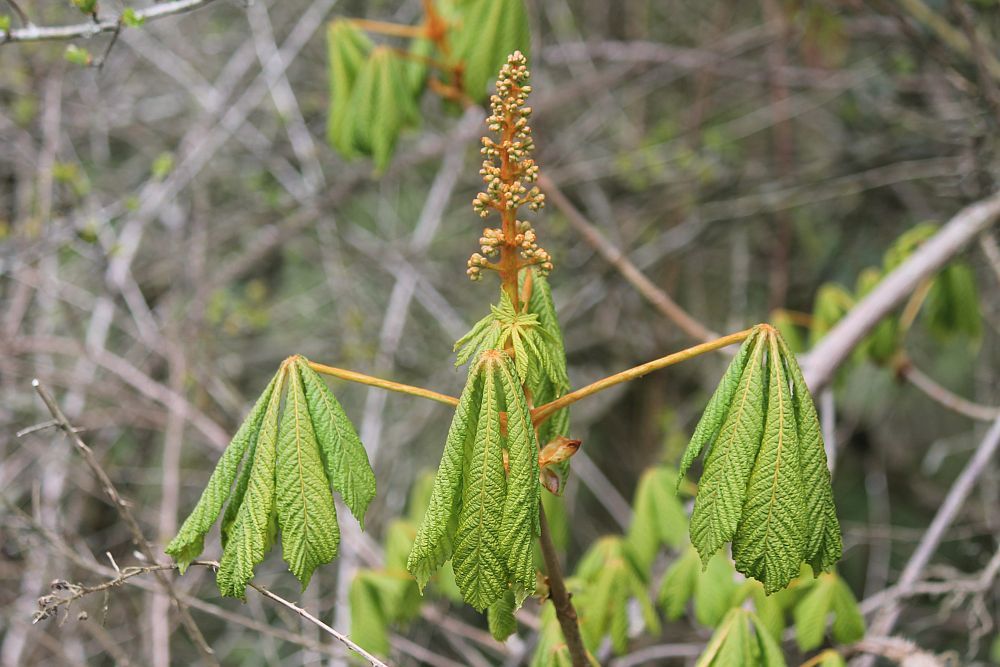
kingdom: Plantae
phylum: Tracheophyta
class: Magnoliopsida
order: Sapindales
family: Sapindaceae
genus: Aesculus
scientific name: Aesculus hippocastanum
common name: Horse-chestnut
